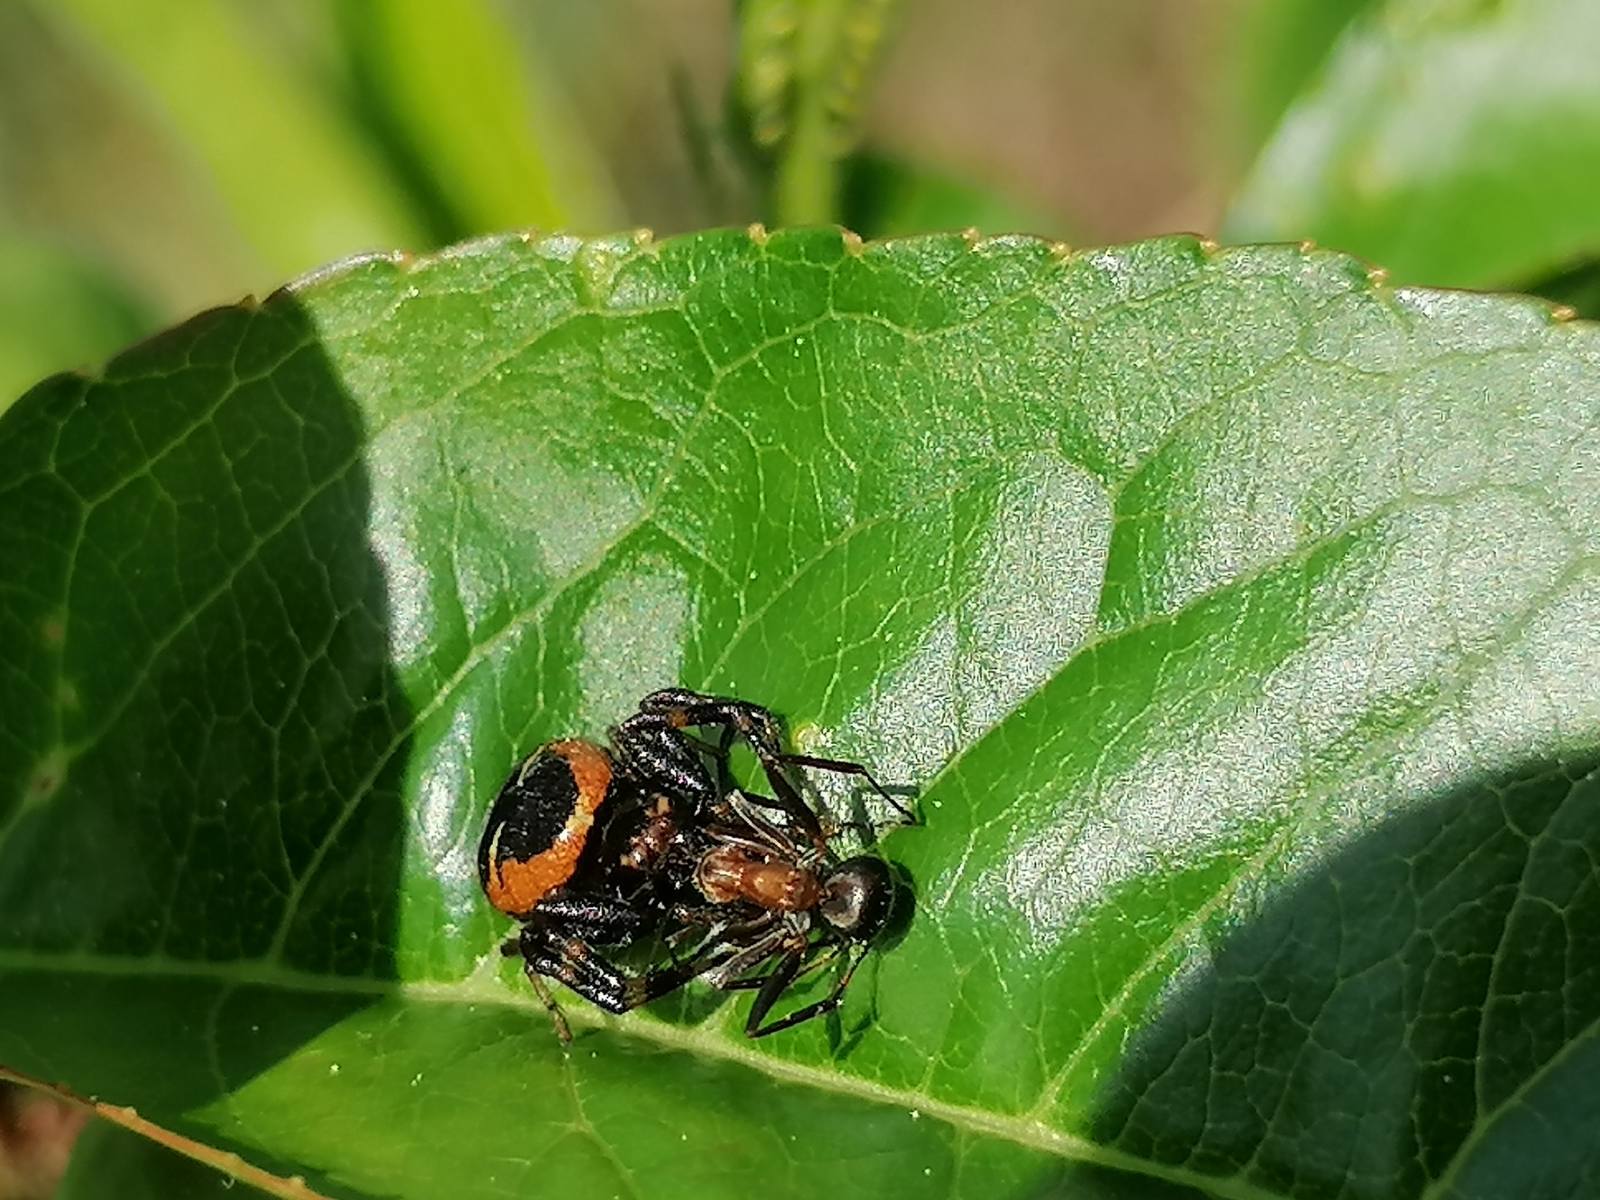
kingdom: Animalia
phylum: Arthropoda
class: Arachnida
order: Araneae
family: Thomisidae
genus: Synema
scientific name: Synema globosum
